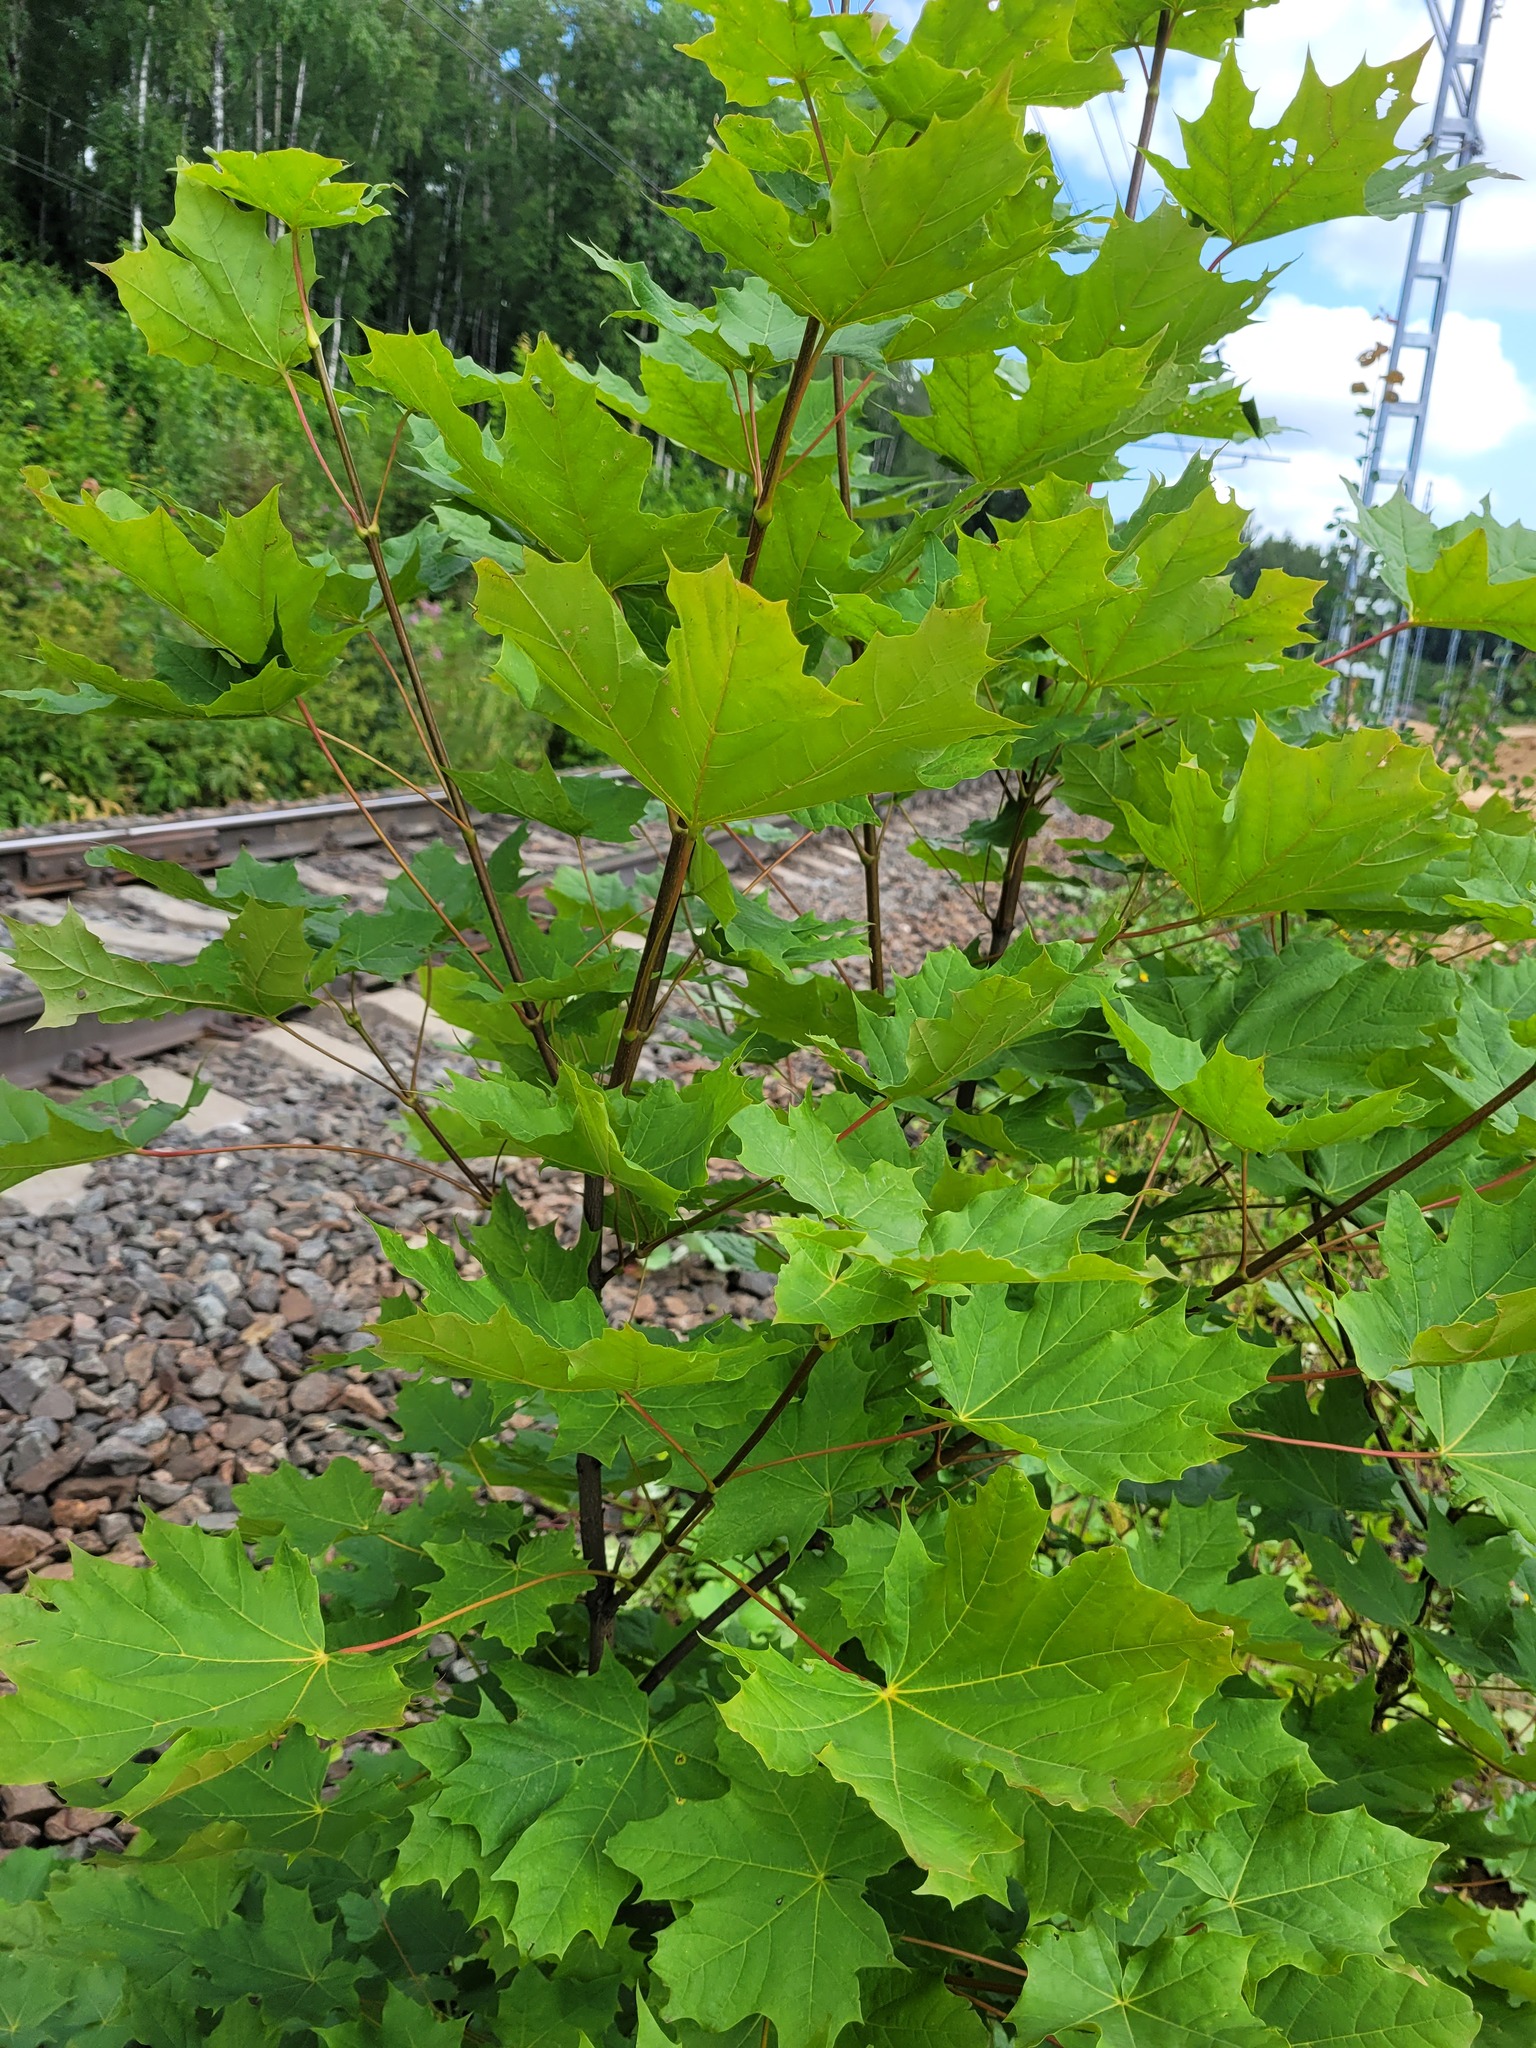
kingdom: Plantae
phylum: Tracheophyta
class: Magnoliopsida
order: Sapindales
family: Sapindaceae
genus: Acer
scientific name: Acer platanoides
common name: Norway maple
